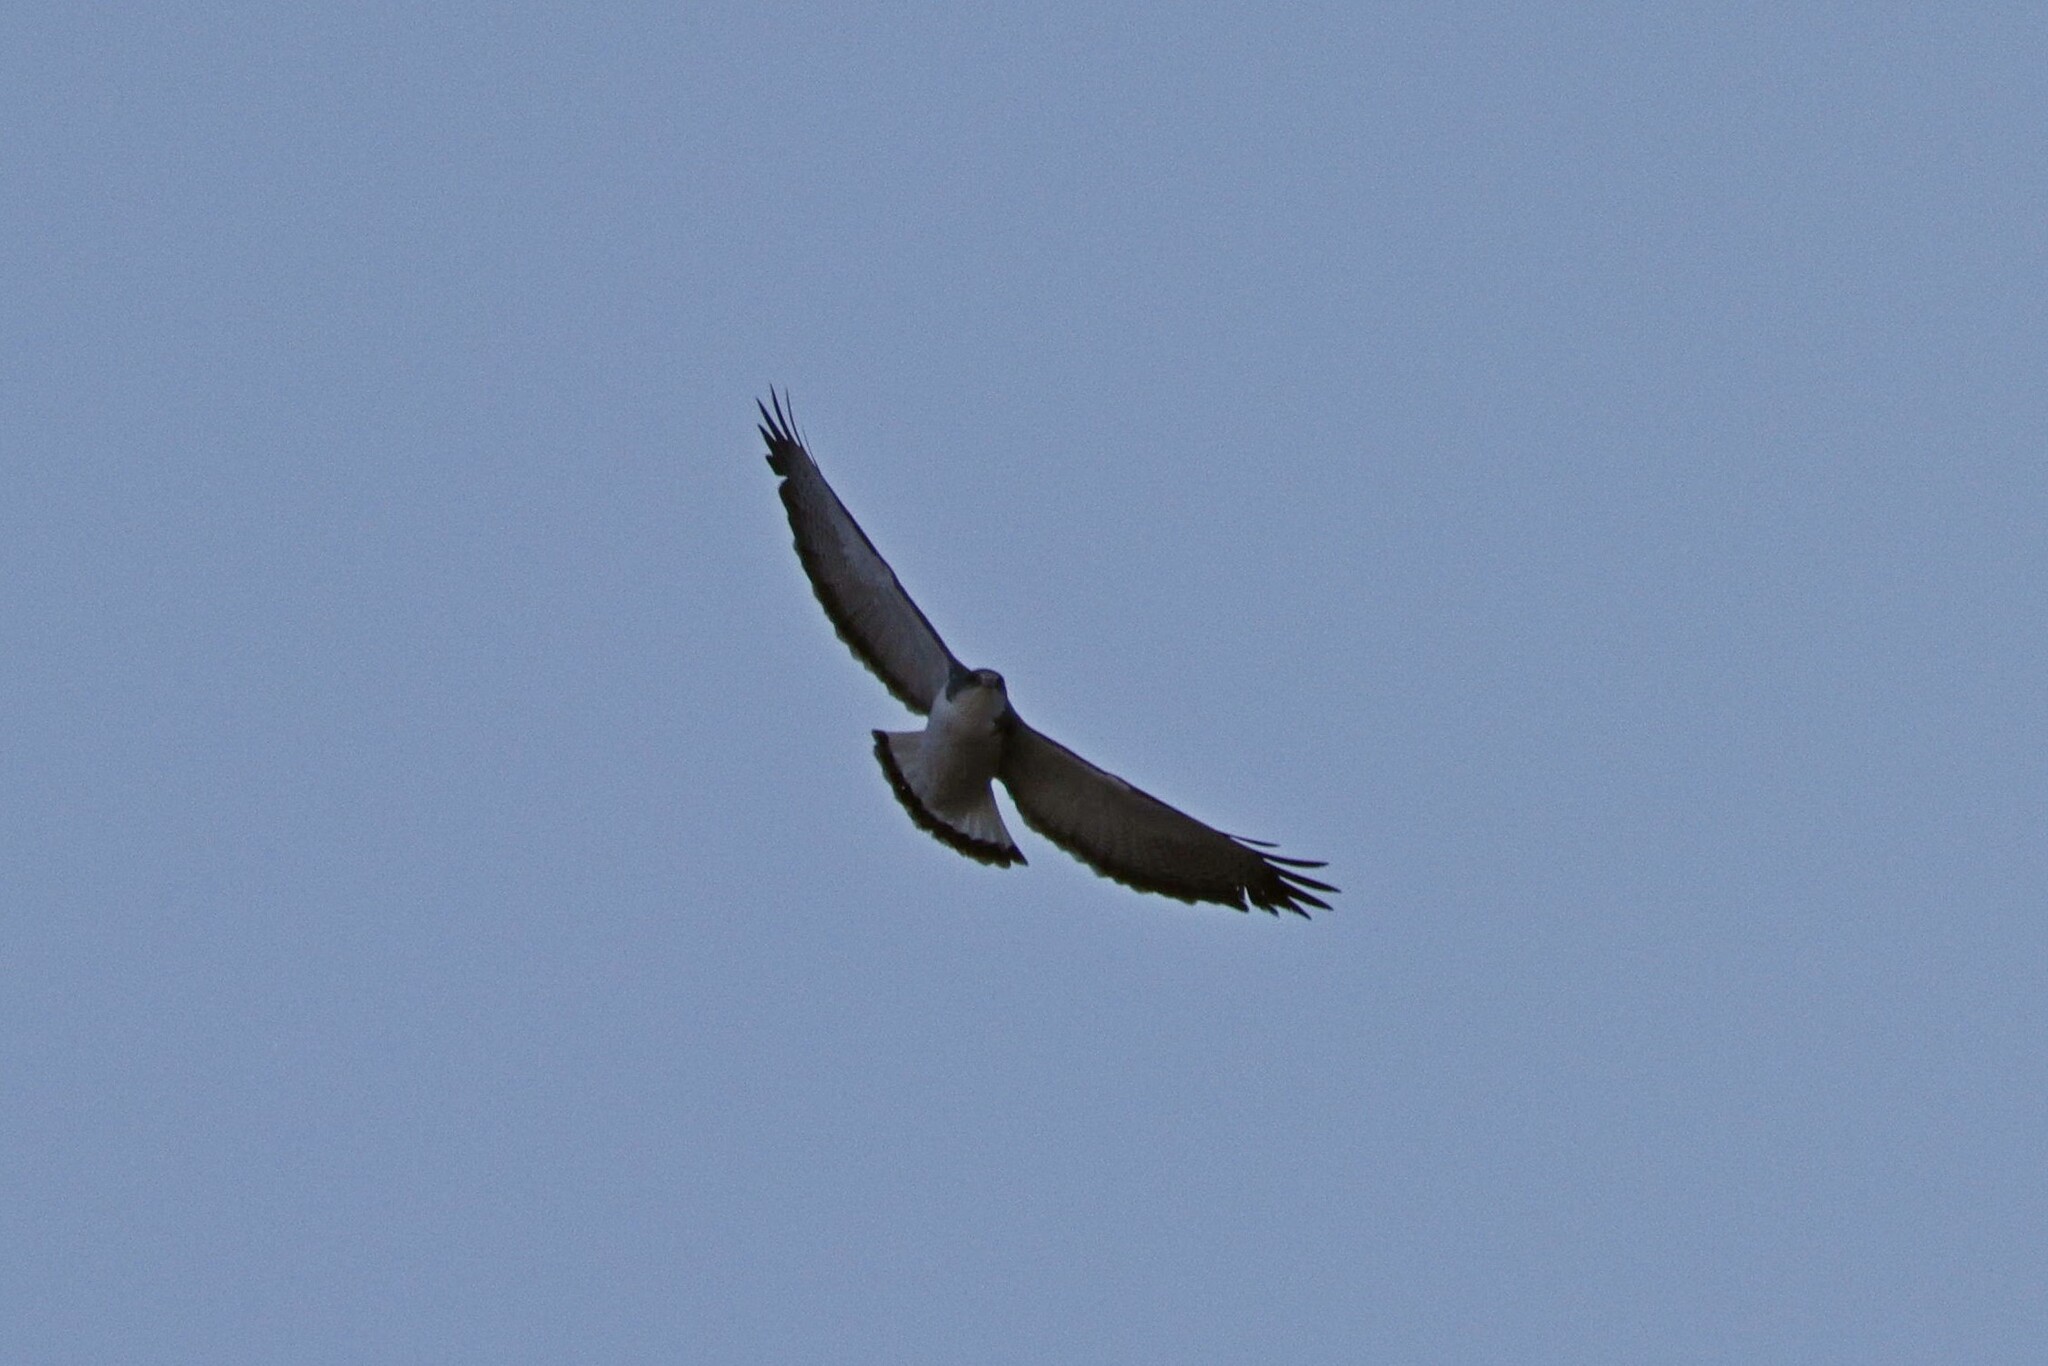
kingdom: Animalia
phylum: Chordata
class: Aves
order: Accipitriformes
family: Accipitridae
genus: Buteo
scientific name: Buteo polyosoma
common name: Variable hawk
